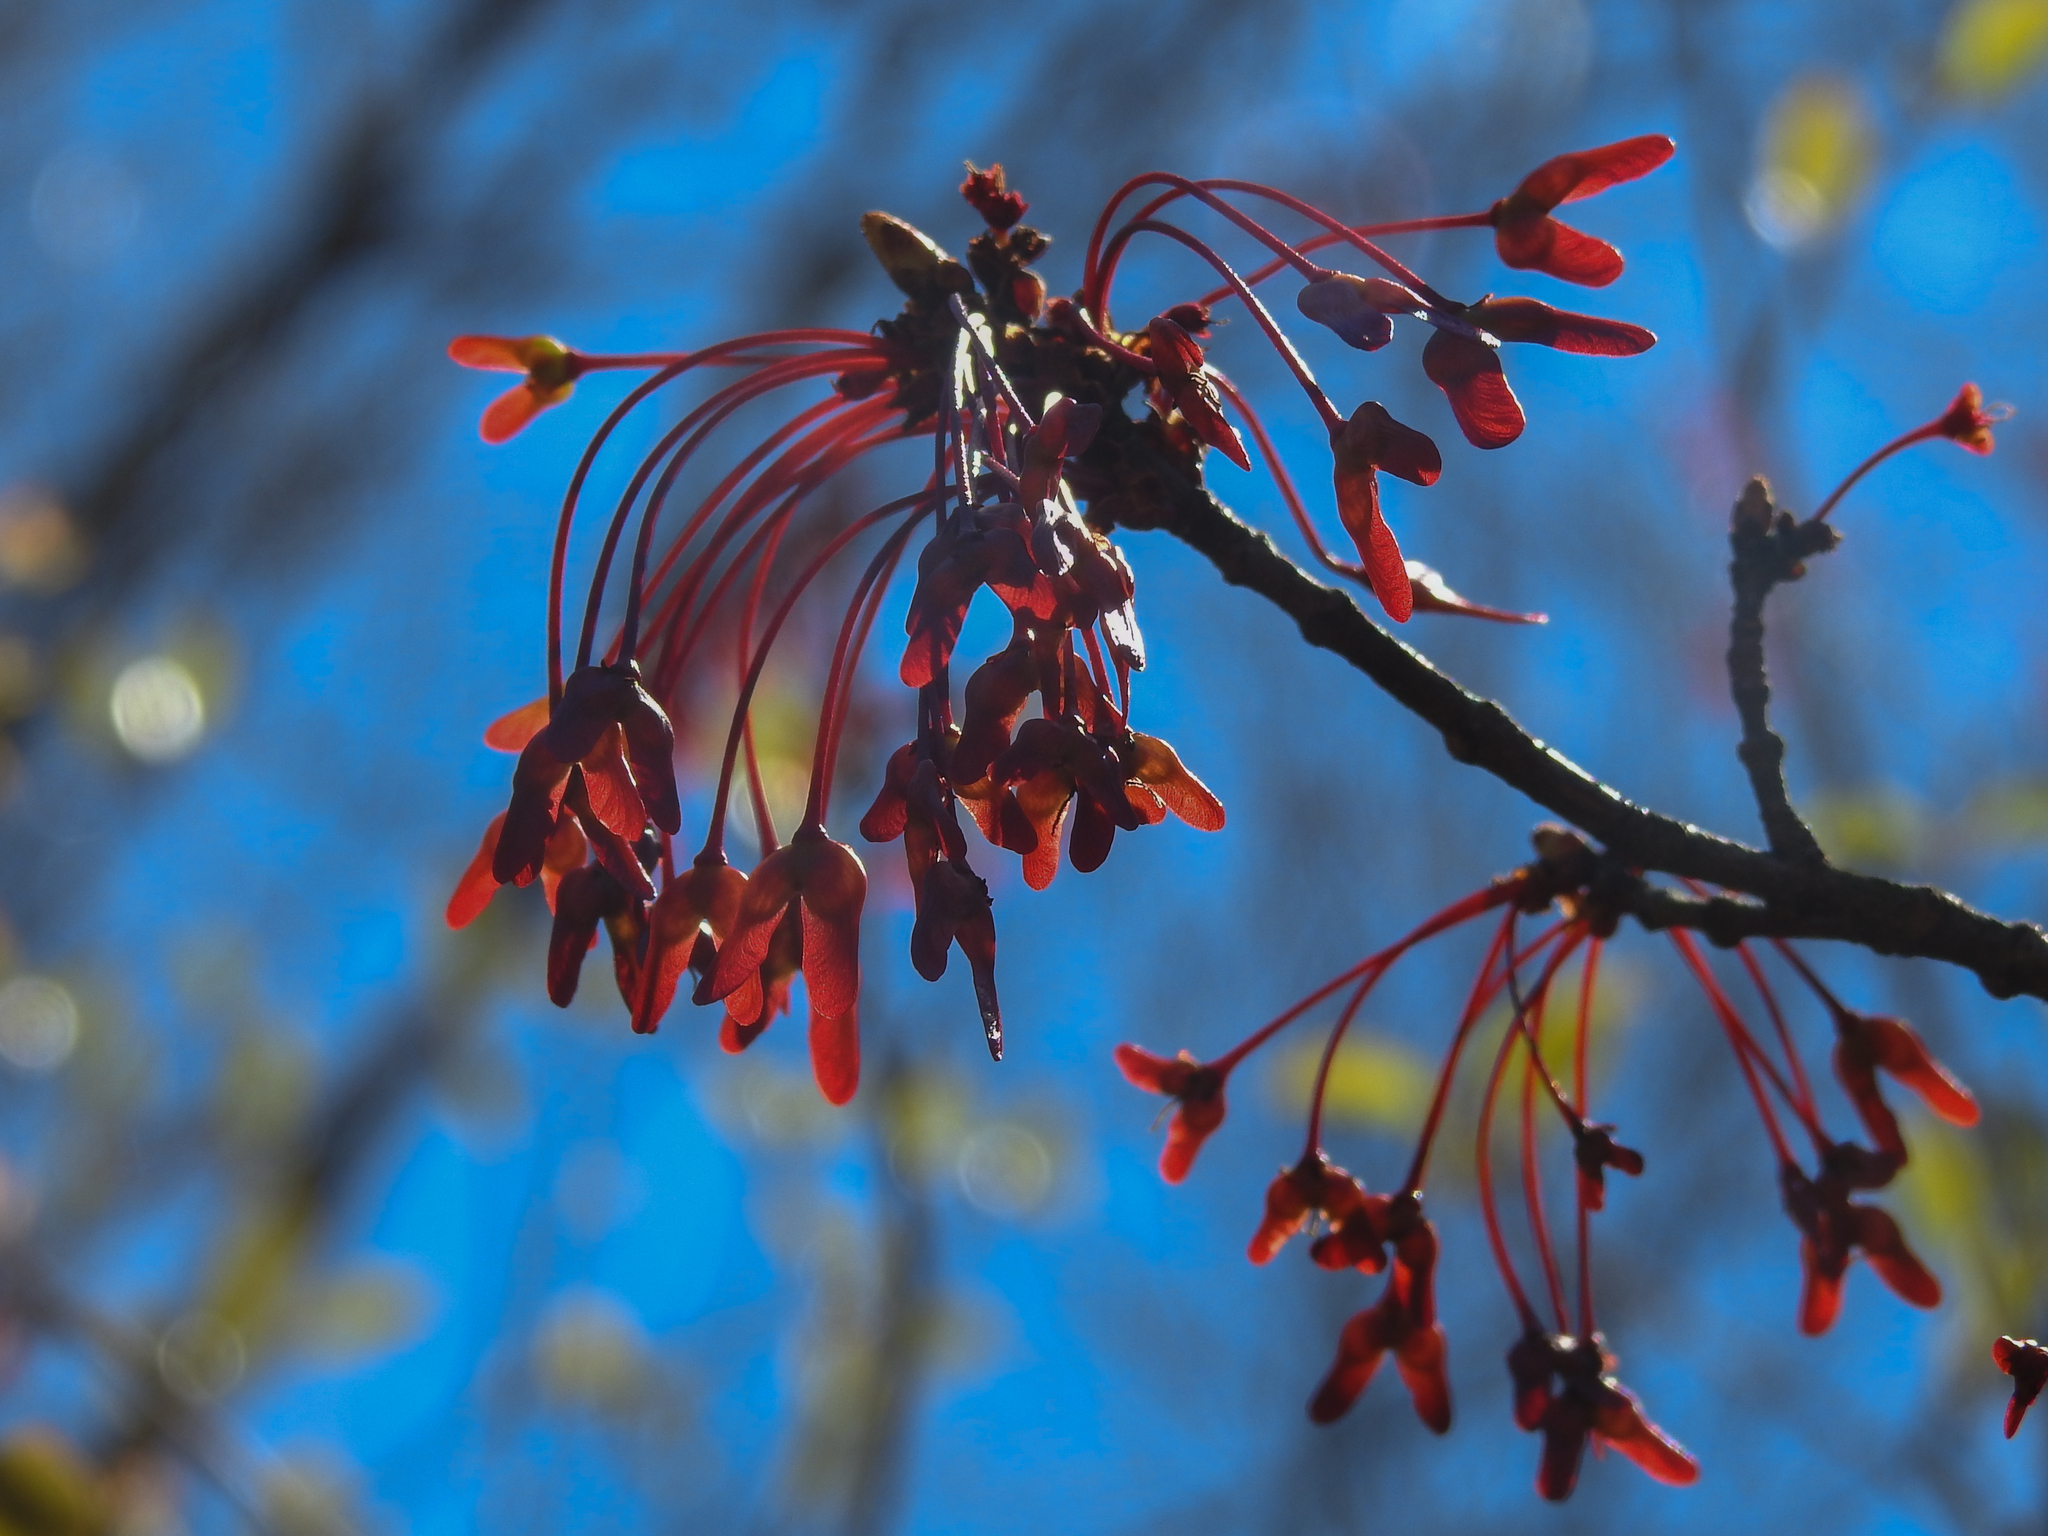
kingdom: Plantae
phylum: Tracheophyta
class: Magnoliopsida
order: Sapindales
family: Sapindaceae
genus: Acer
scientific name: Acer rubrum
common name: Red maple
